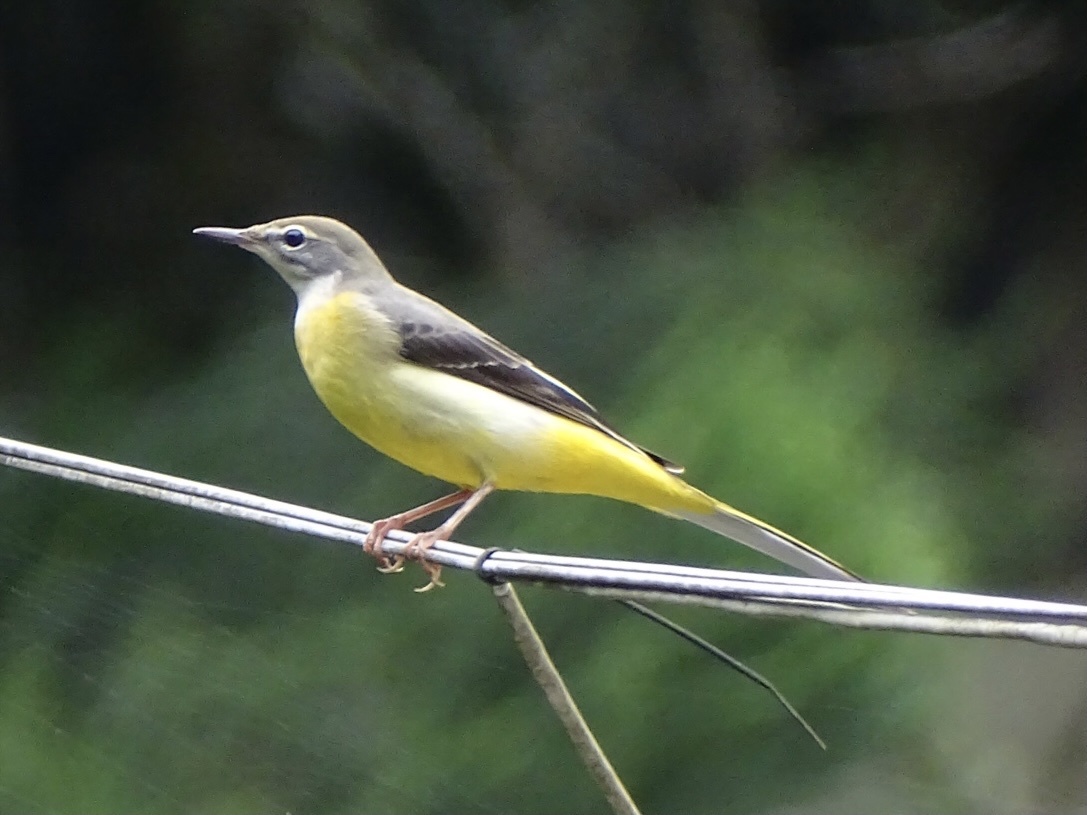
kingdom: Animalia
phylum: Chordata
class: Aves
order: Passeriformes
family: Motacillidae
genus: Motacilla
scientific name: Motacilla cinerea
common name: Grey wagtail
